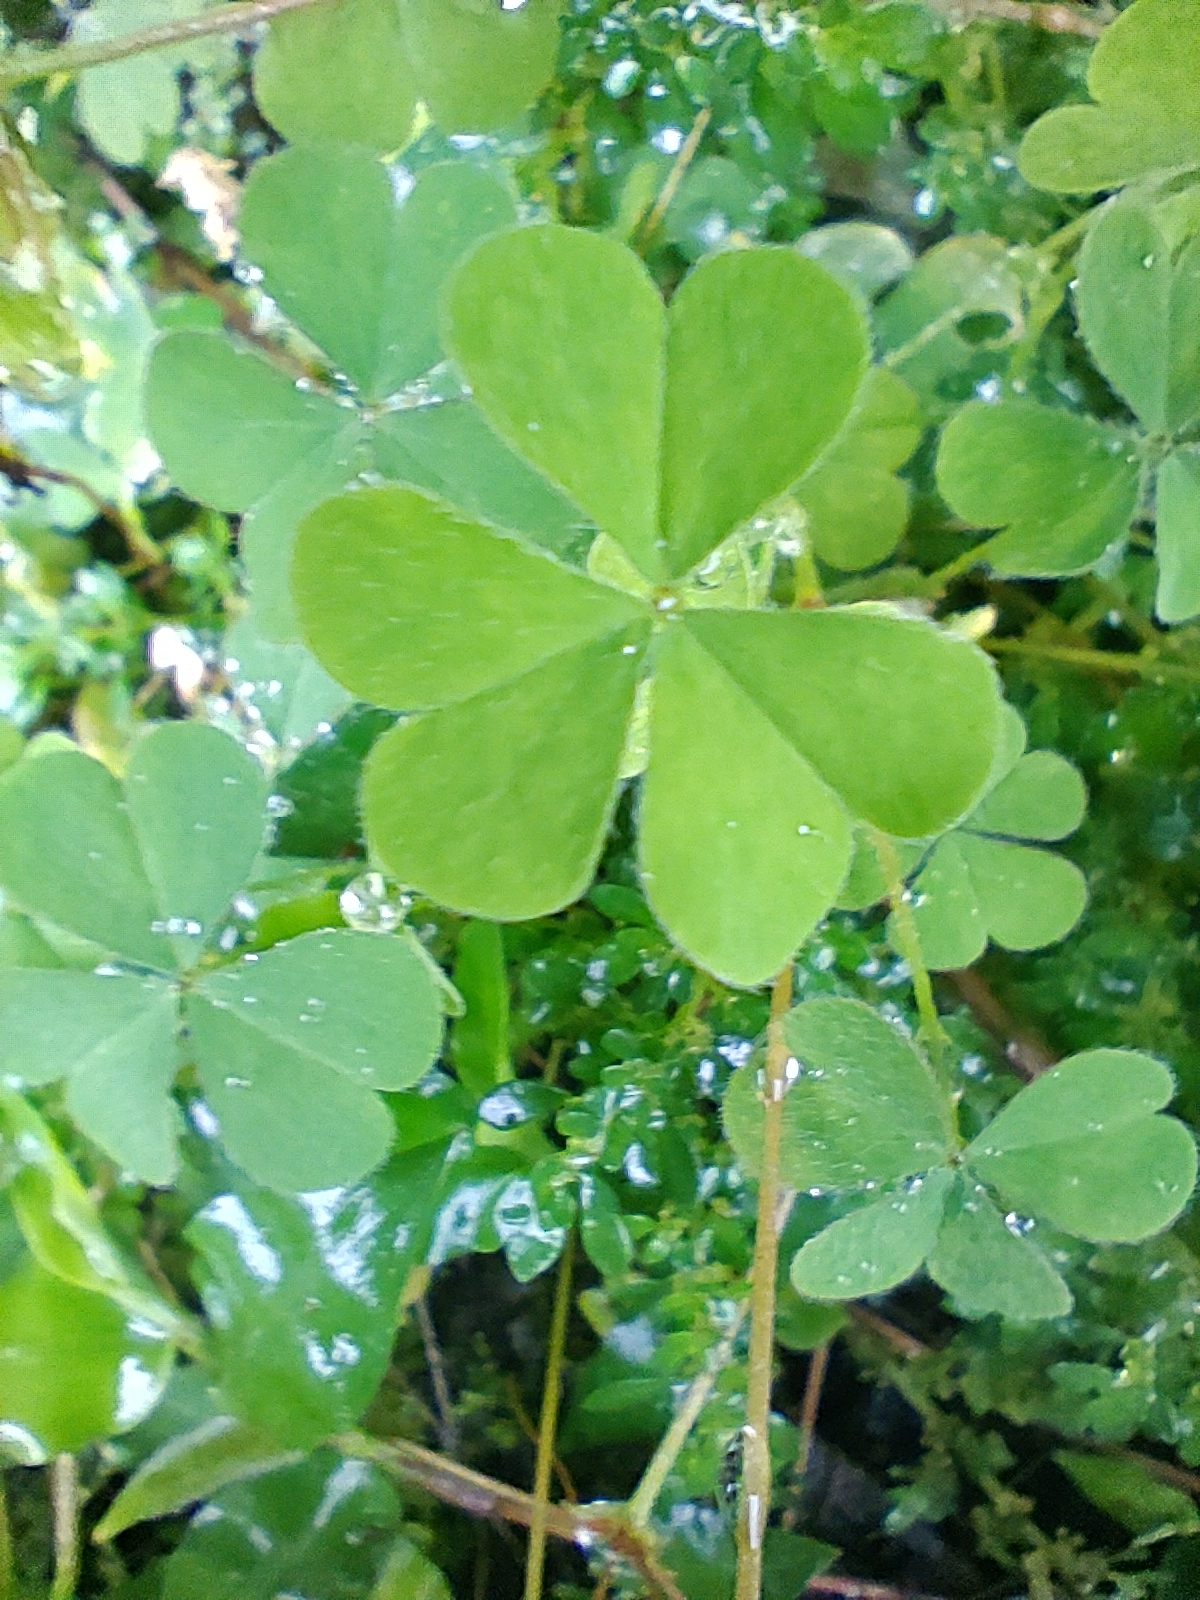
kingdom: Plantae
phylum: Tracheophyta
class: Magnoliopsida
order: Oxalidales
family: Oxalidaceae
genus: Oxalis
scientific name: Oxalis corniculata
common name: Procumbent yellow-sorrel
